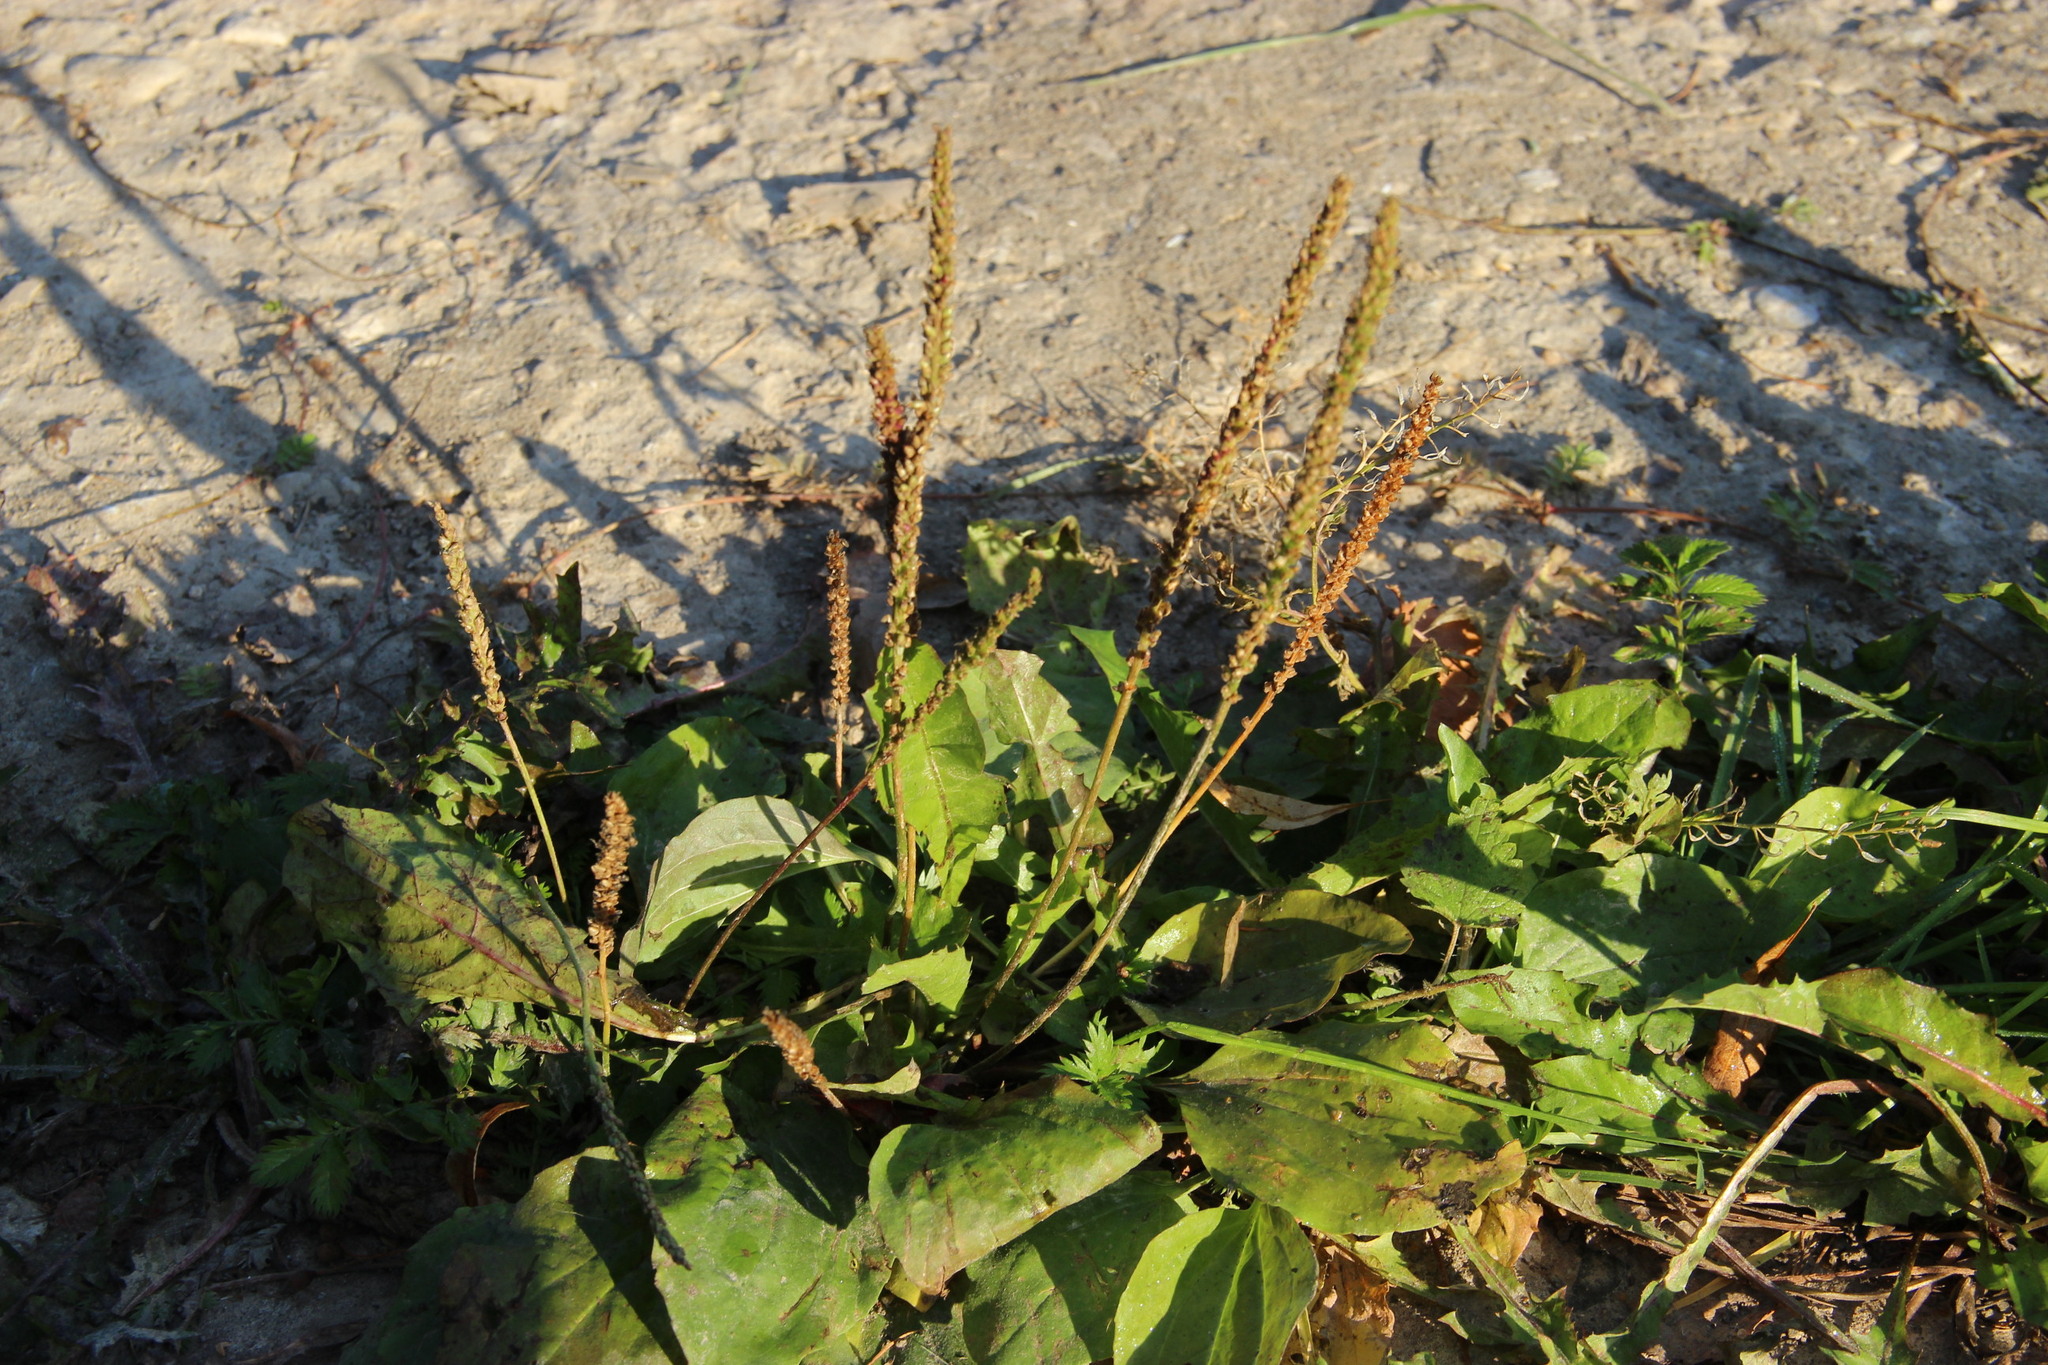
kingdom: Plantae
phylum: Tracheophyta
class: Magnoliopsida
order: Lamiales
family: Plantaginaceae
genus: Plantago
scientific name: Plantago major
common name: Common plantain
